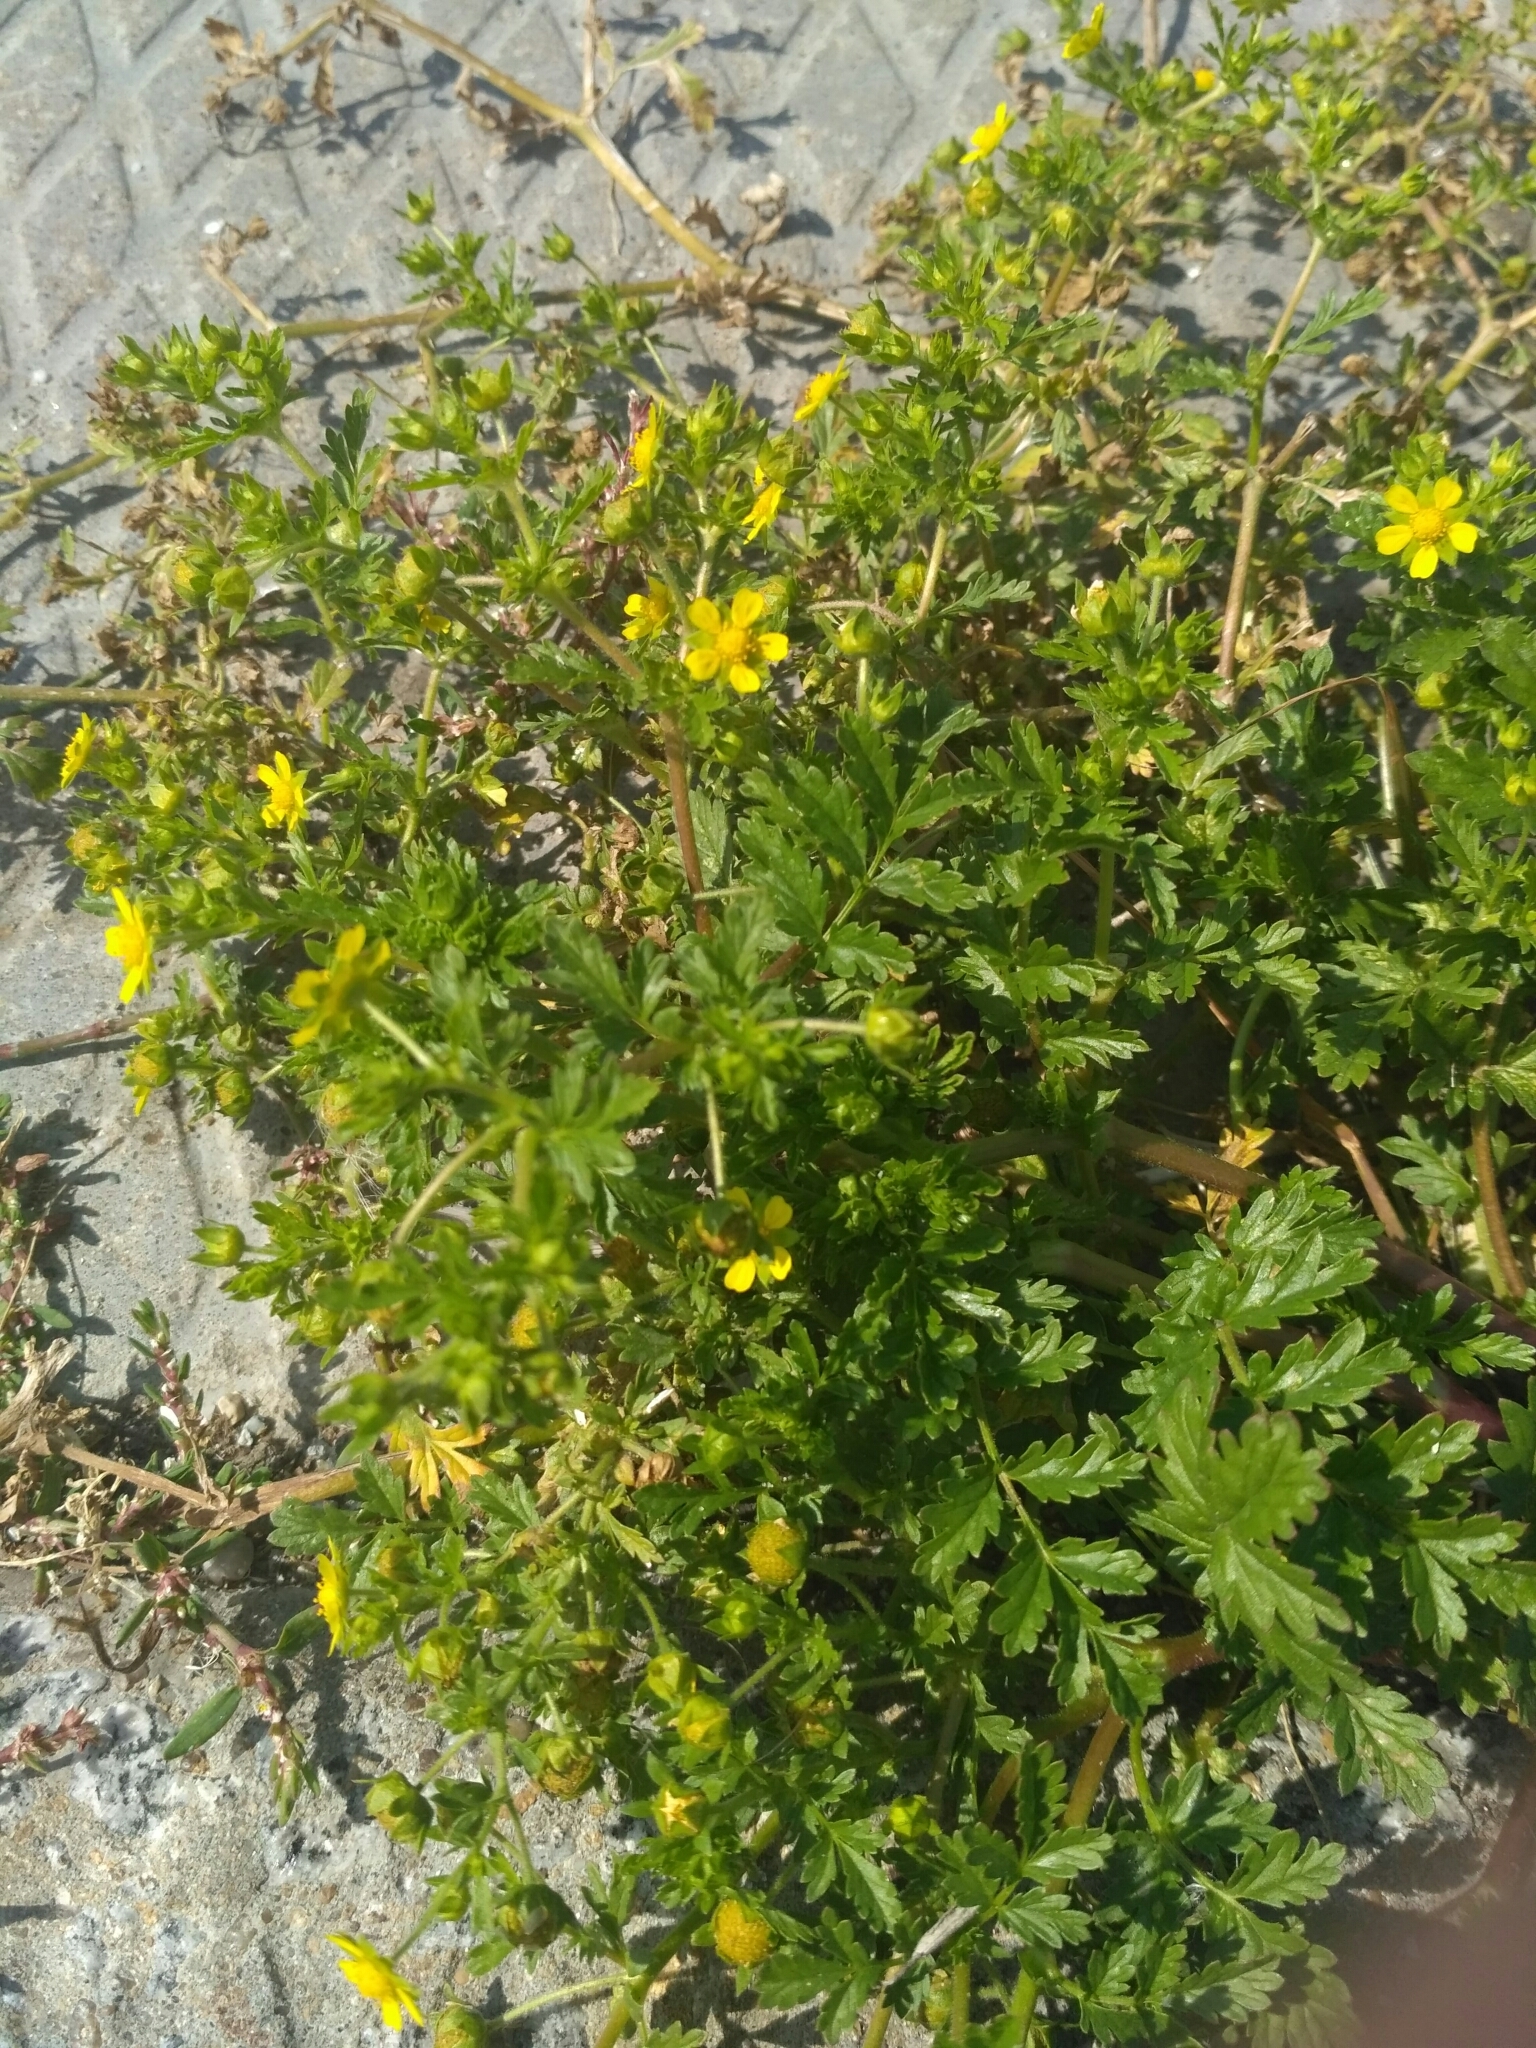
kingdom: Plantae
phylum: Tracheophyta
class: Magnoliopsida
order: Rosales
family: Rosaceae
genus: Potentilla
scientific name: Potentilla supina
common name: Prostrate cinquefoil
